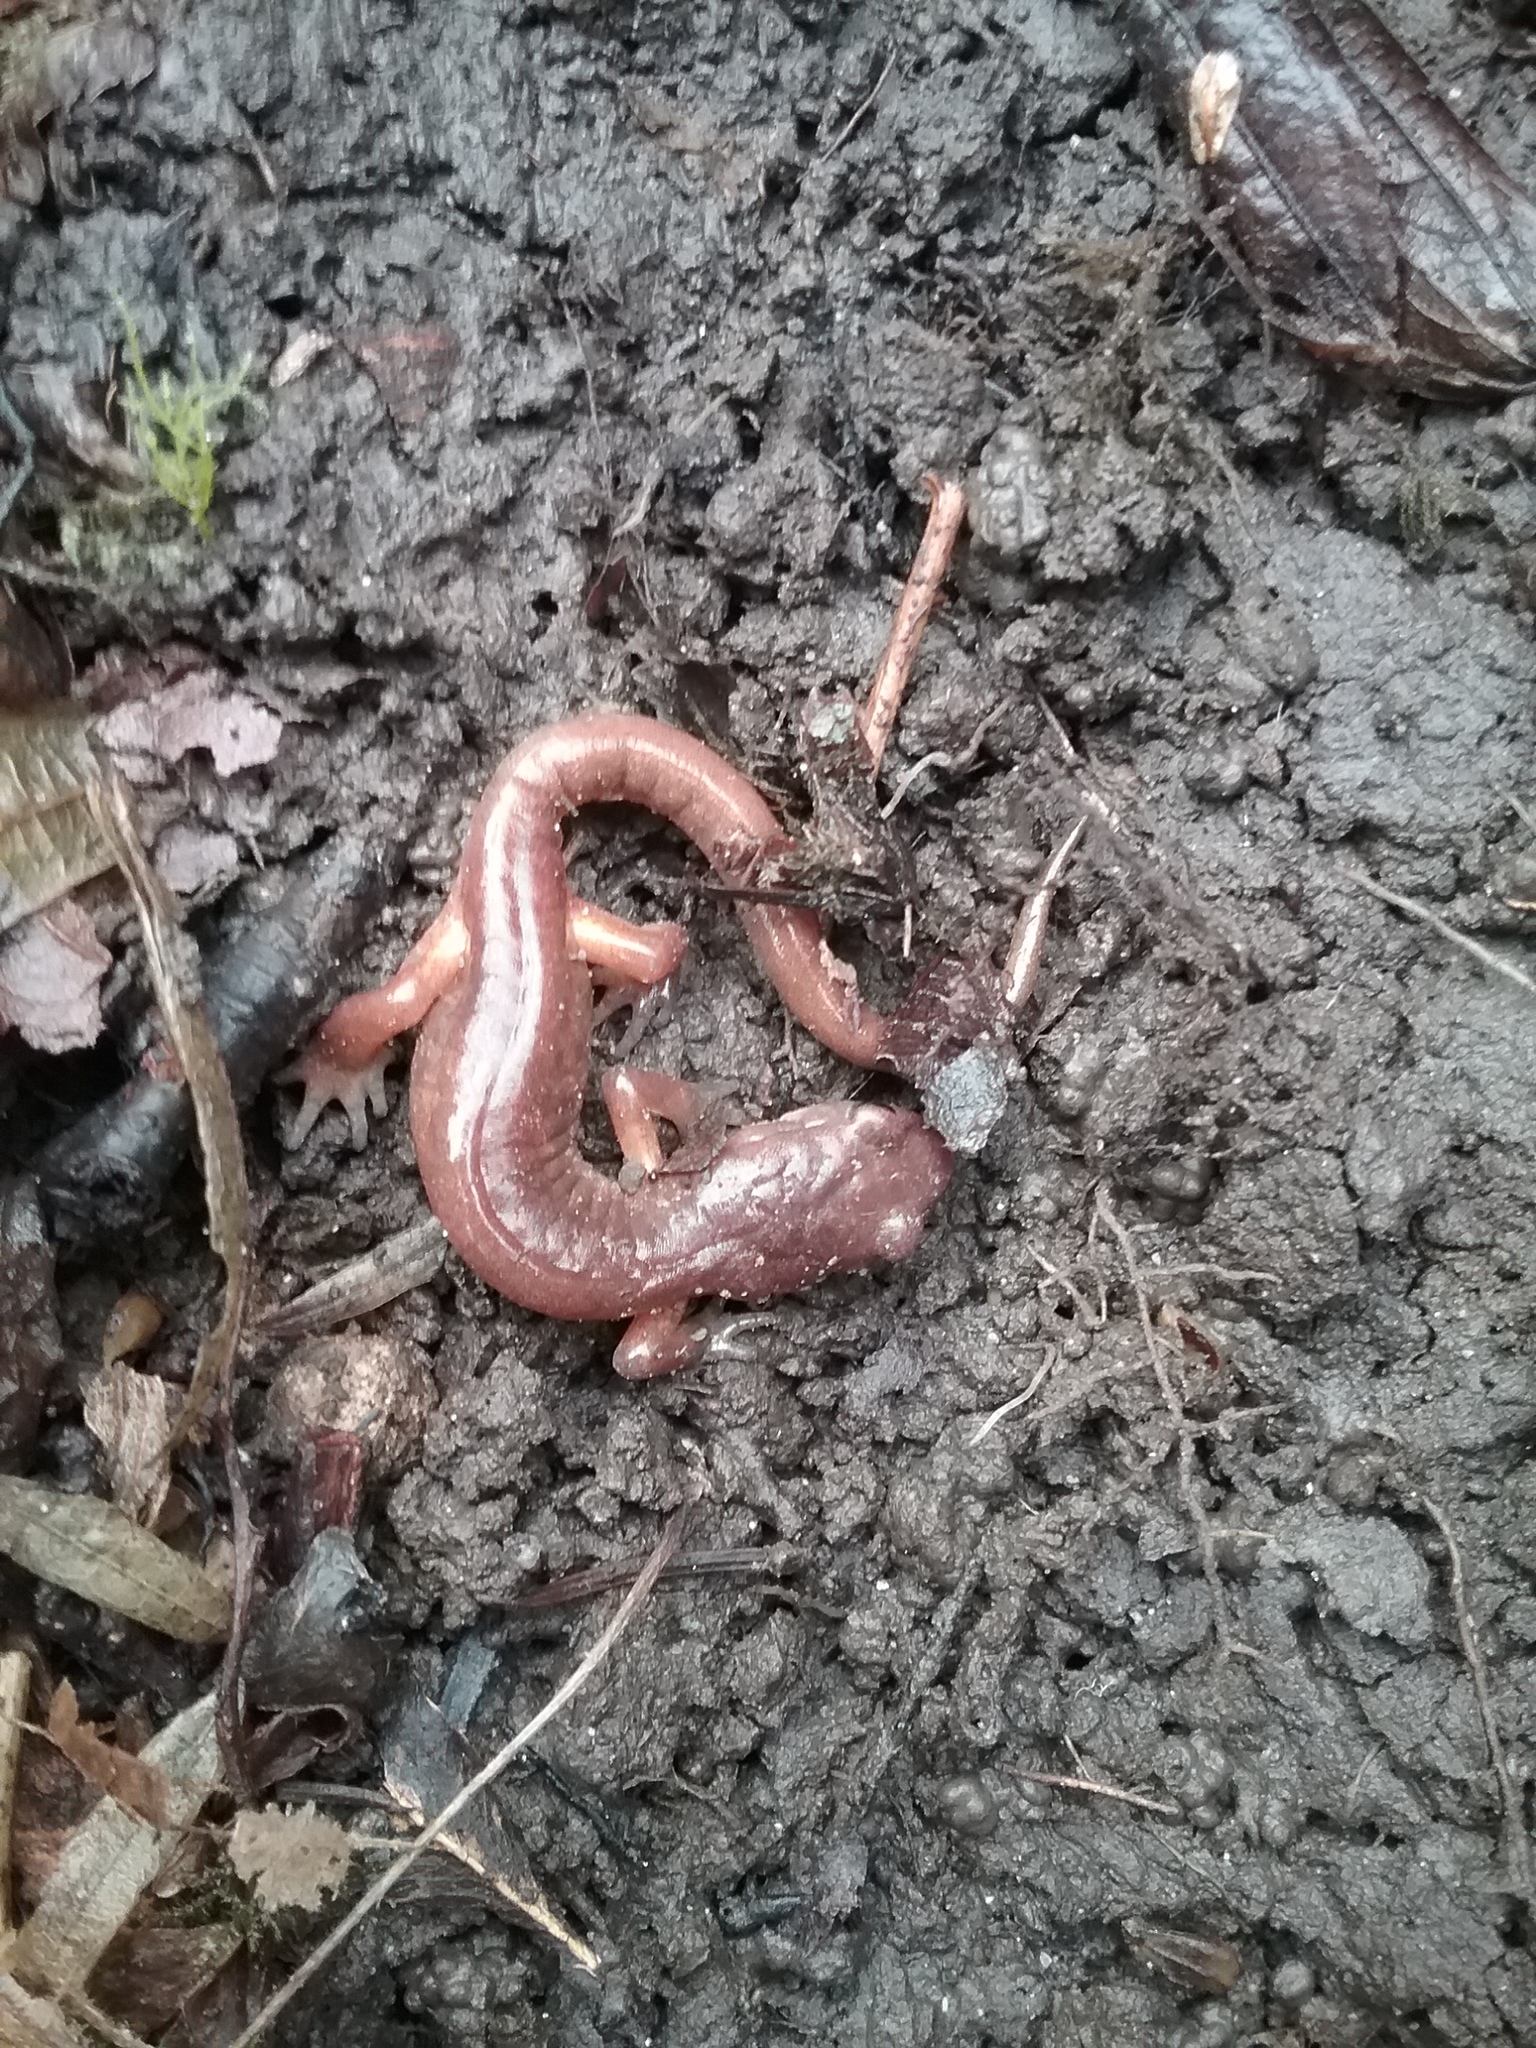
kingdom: Animalia
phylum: Chordata
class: Amphibia
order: Caudata
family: Plethodontidae
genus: Ensatina
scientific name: Ensatina eschscholtzii
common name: Ensatina
